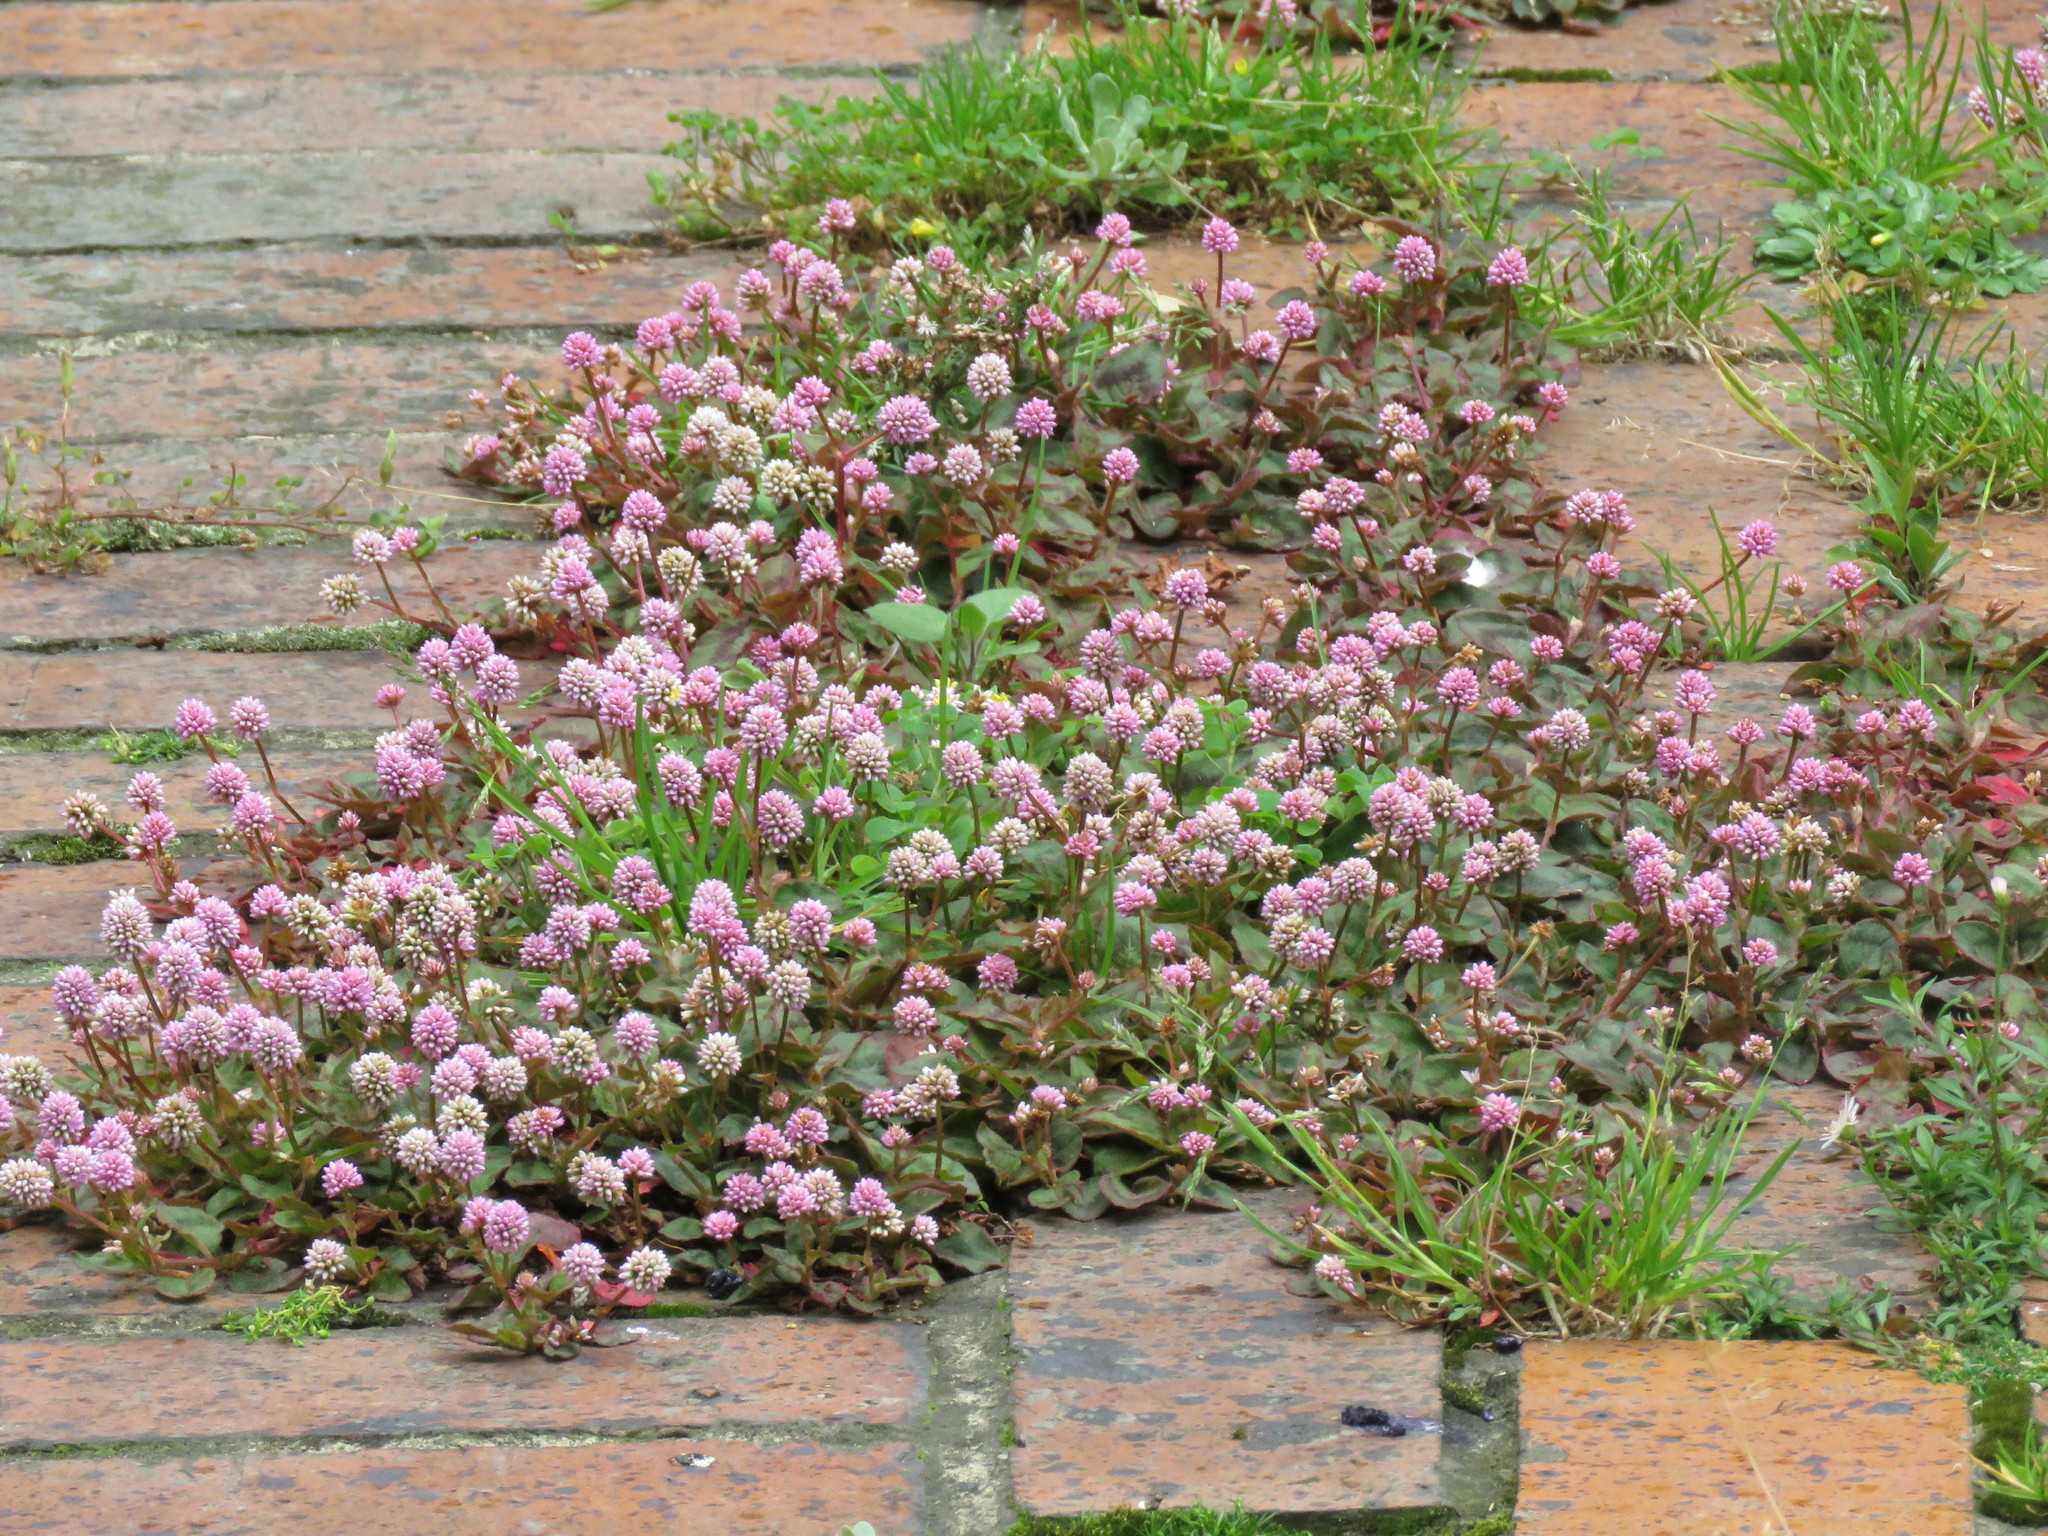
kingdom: Plantae
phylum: Tracheophyta
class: Magnoliopsida
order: Caryophyllales
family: Polygonaceae
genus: Persicaria
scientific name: Persicaria capitata
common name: Pinkhead smartweed
